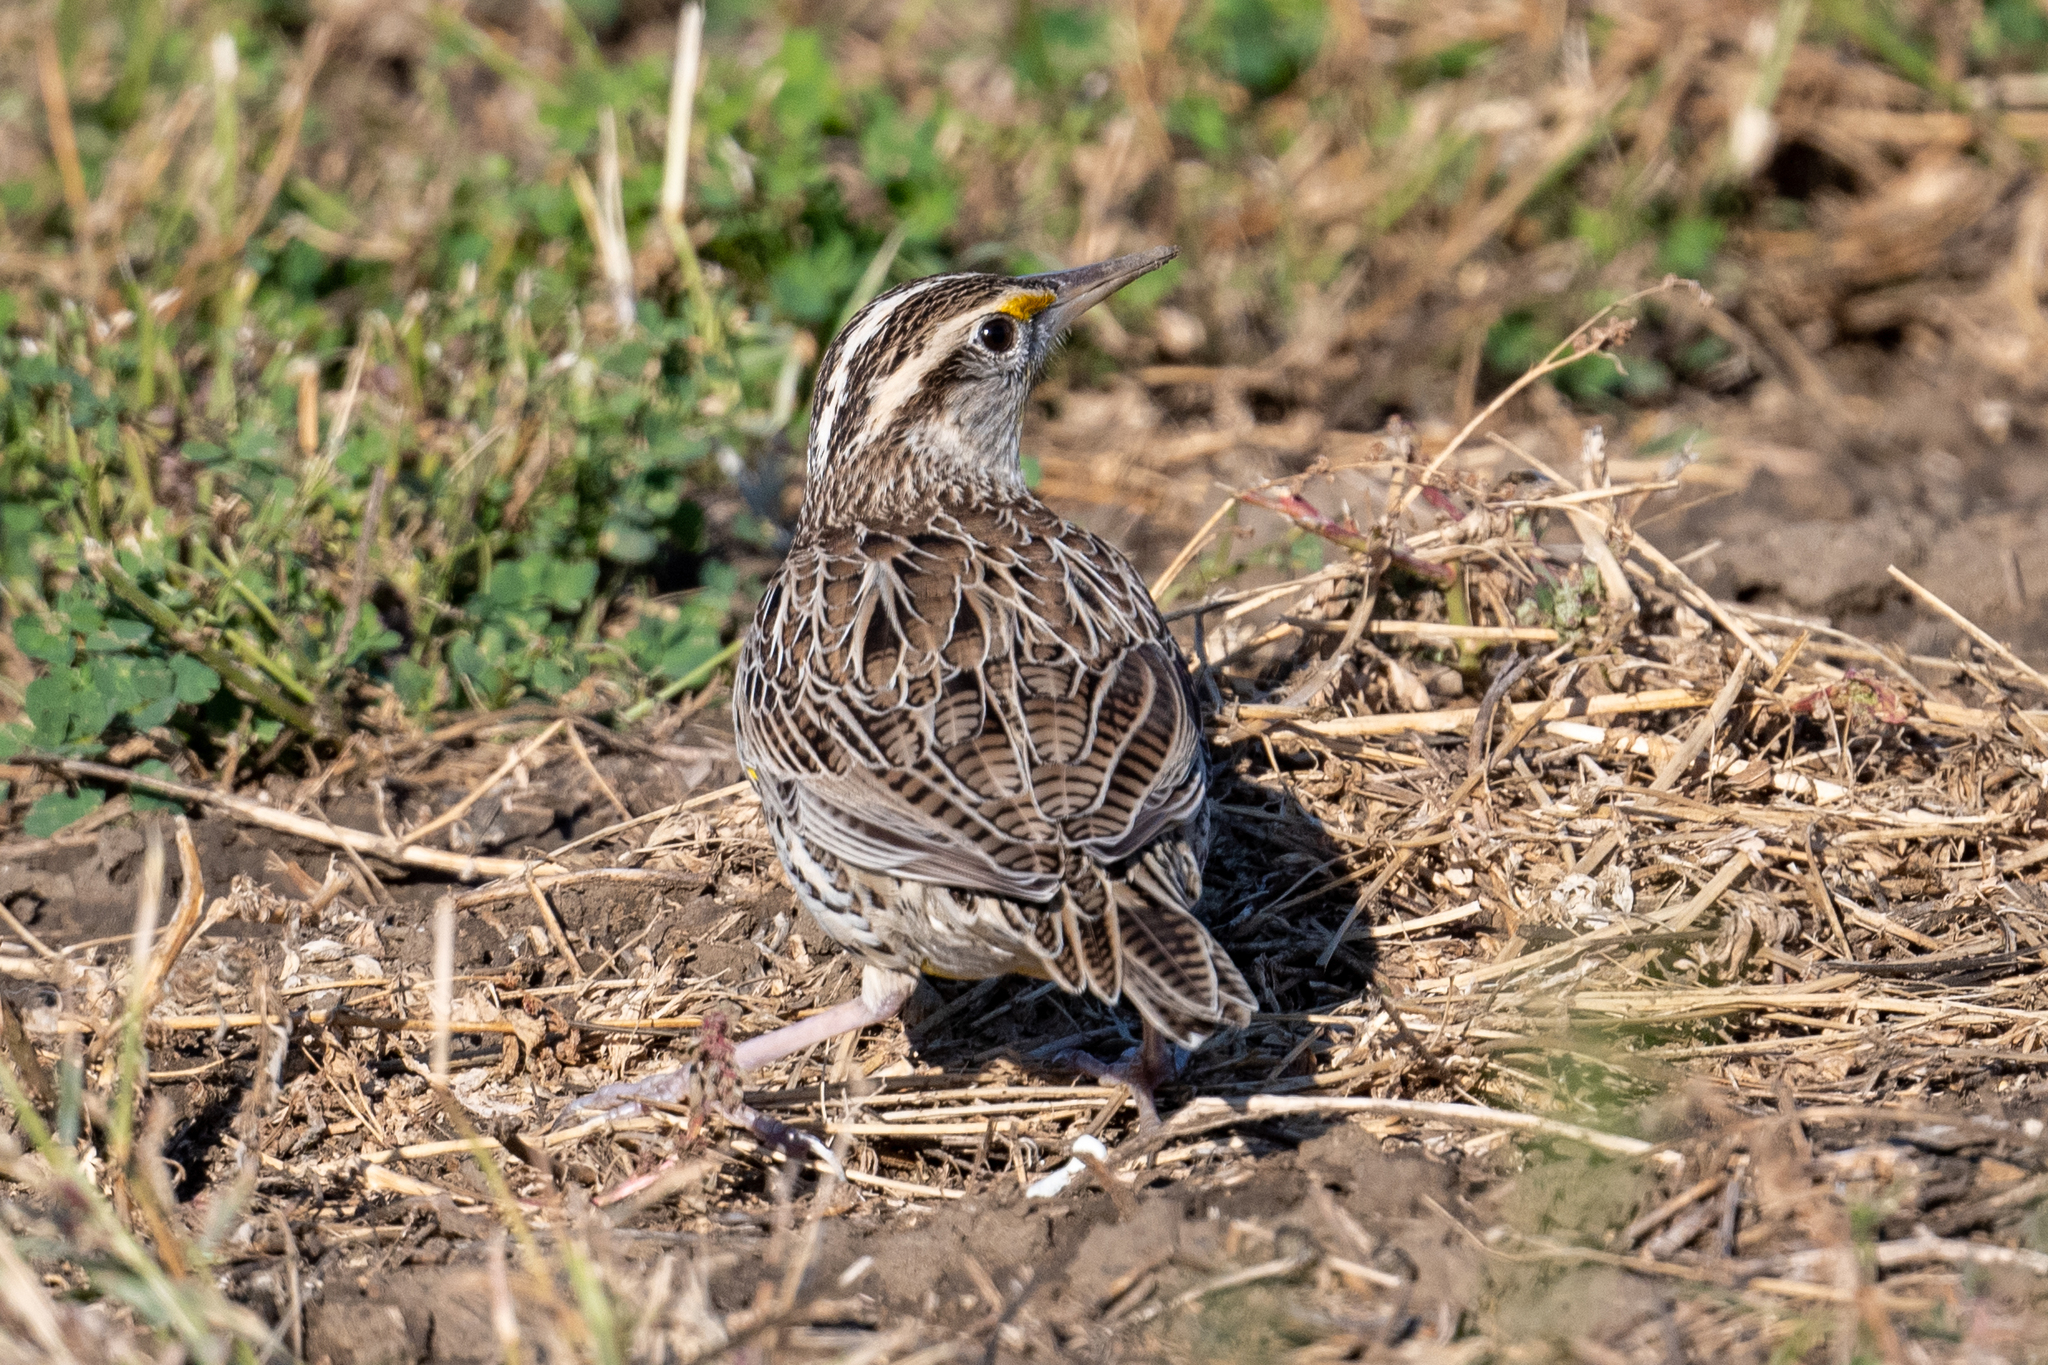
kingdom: Animalia
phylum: Chordata
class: Aves
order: Passeriformes
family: Icteridae
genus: Sturnella
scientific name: Sturnella neglecta
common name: Western meadowlark
